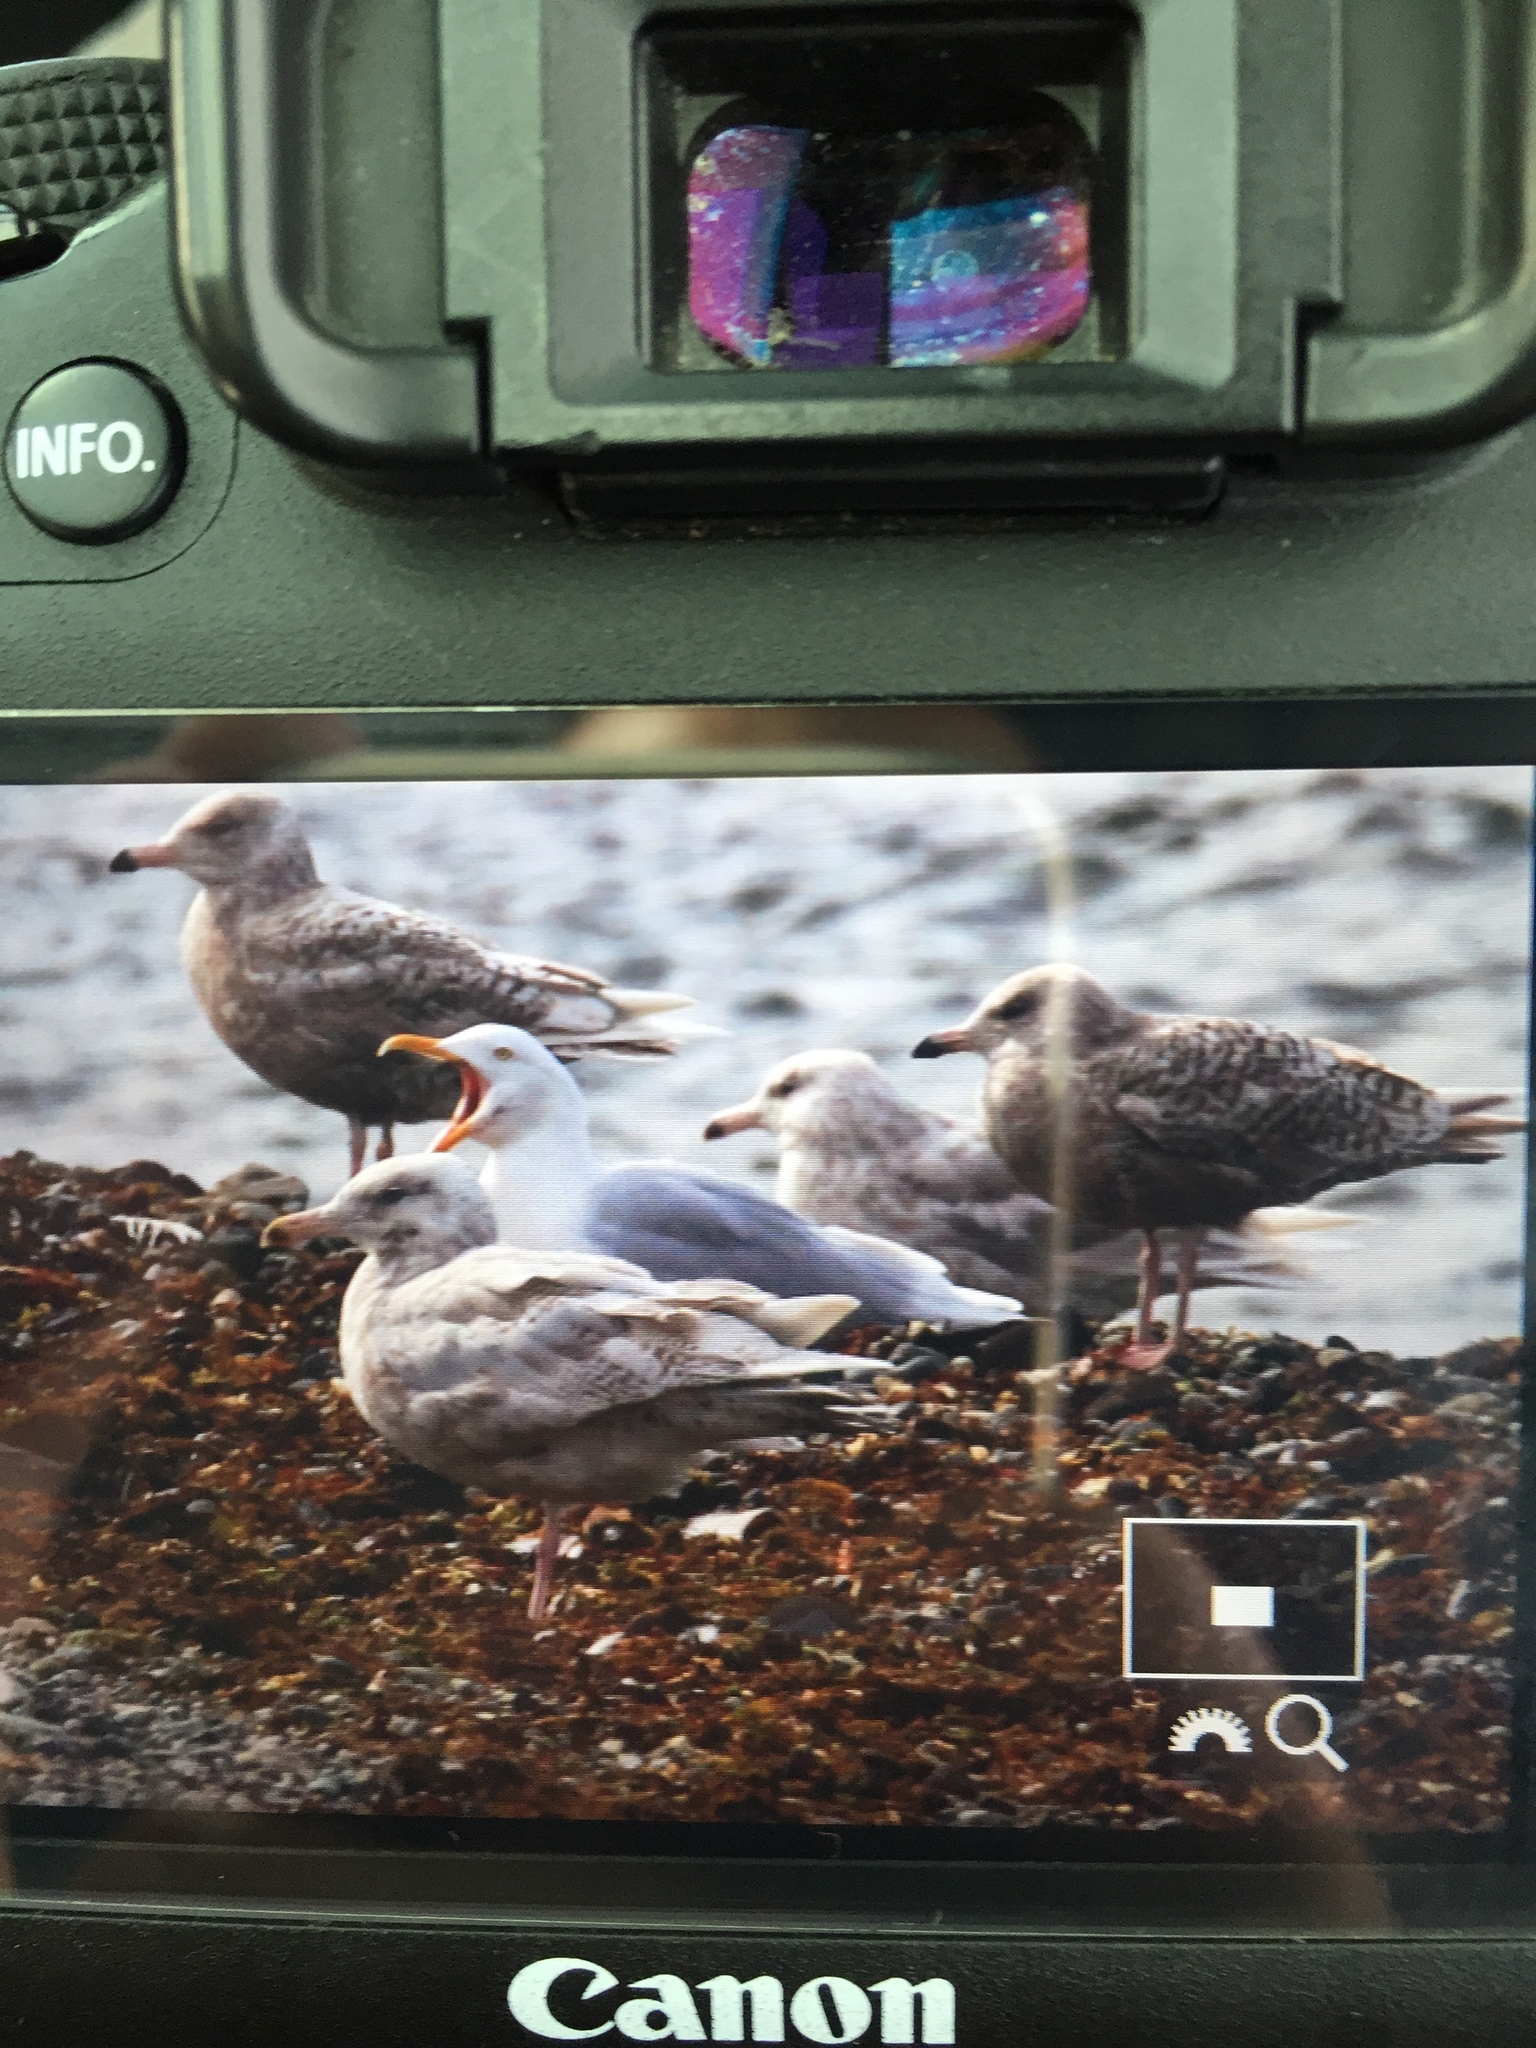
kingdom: Animalia
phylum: Chordata
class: Aves
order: Charadriiformes
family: Laridae
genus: Larus
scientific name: Larus hyperboreus
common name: Glaucous gull
